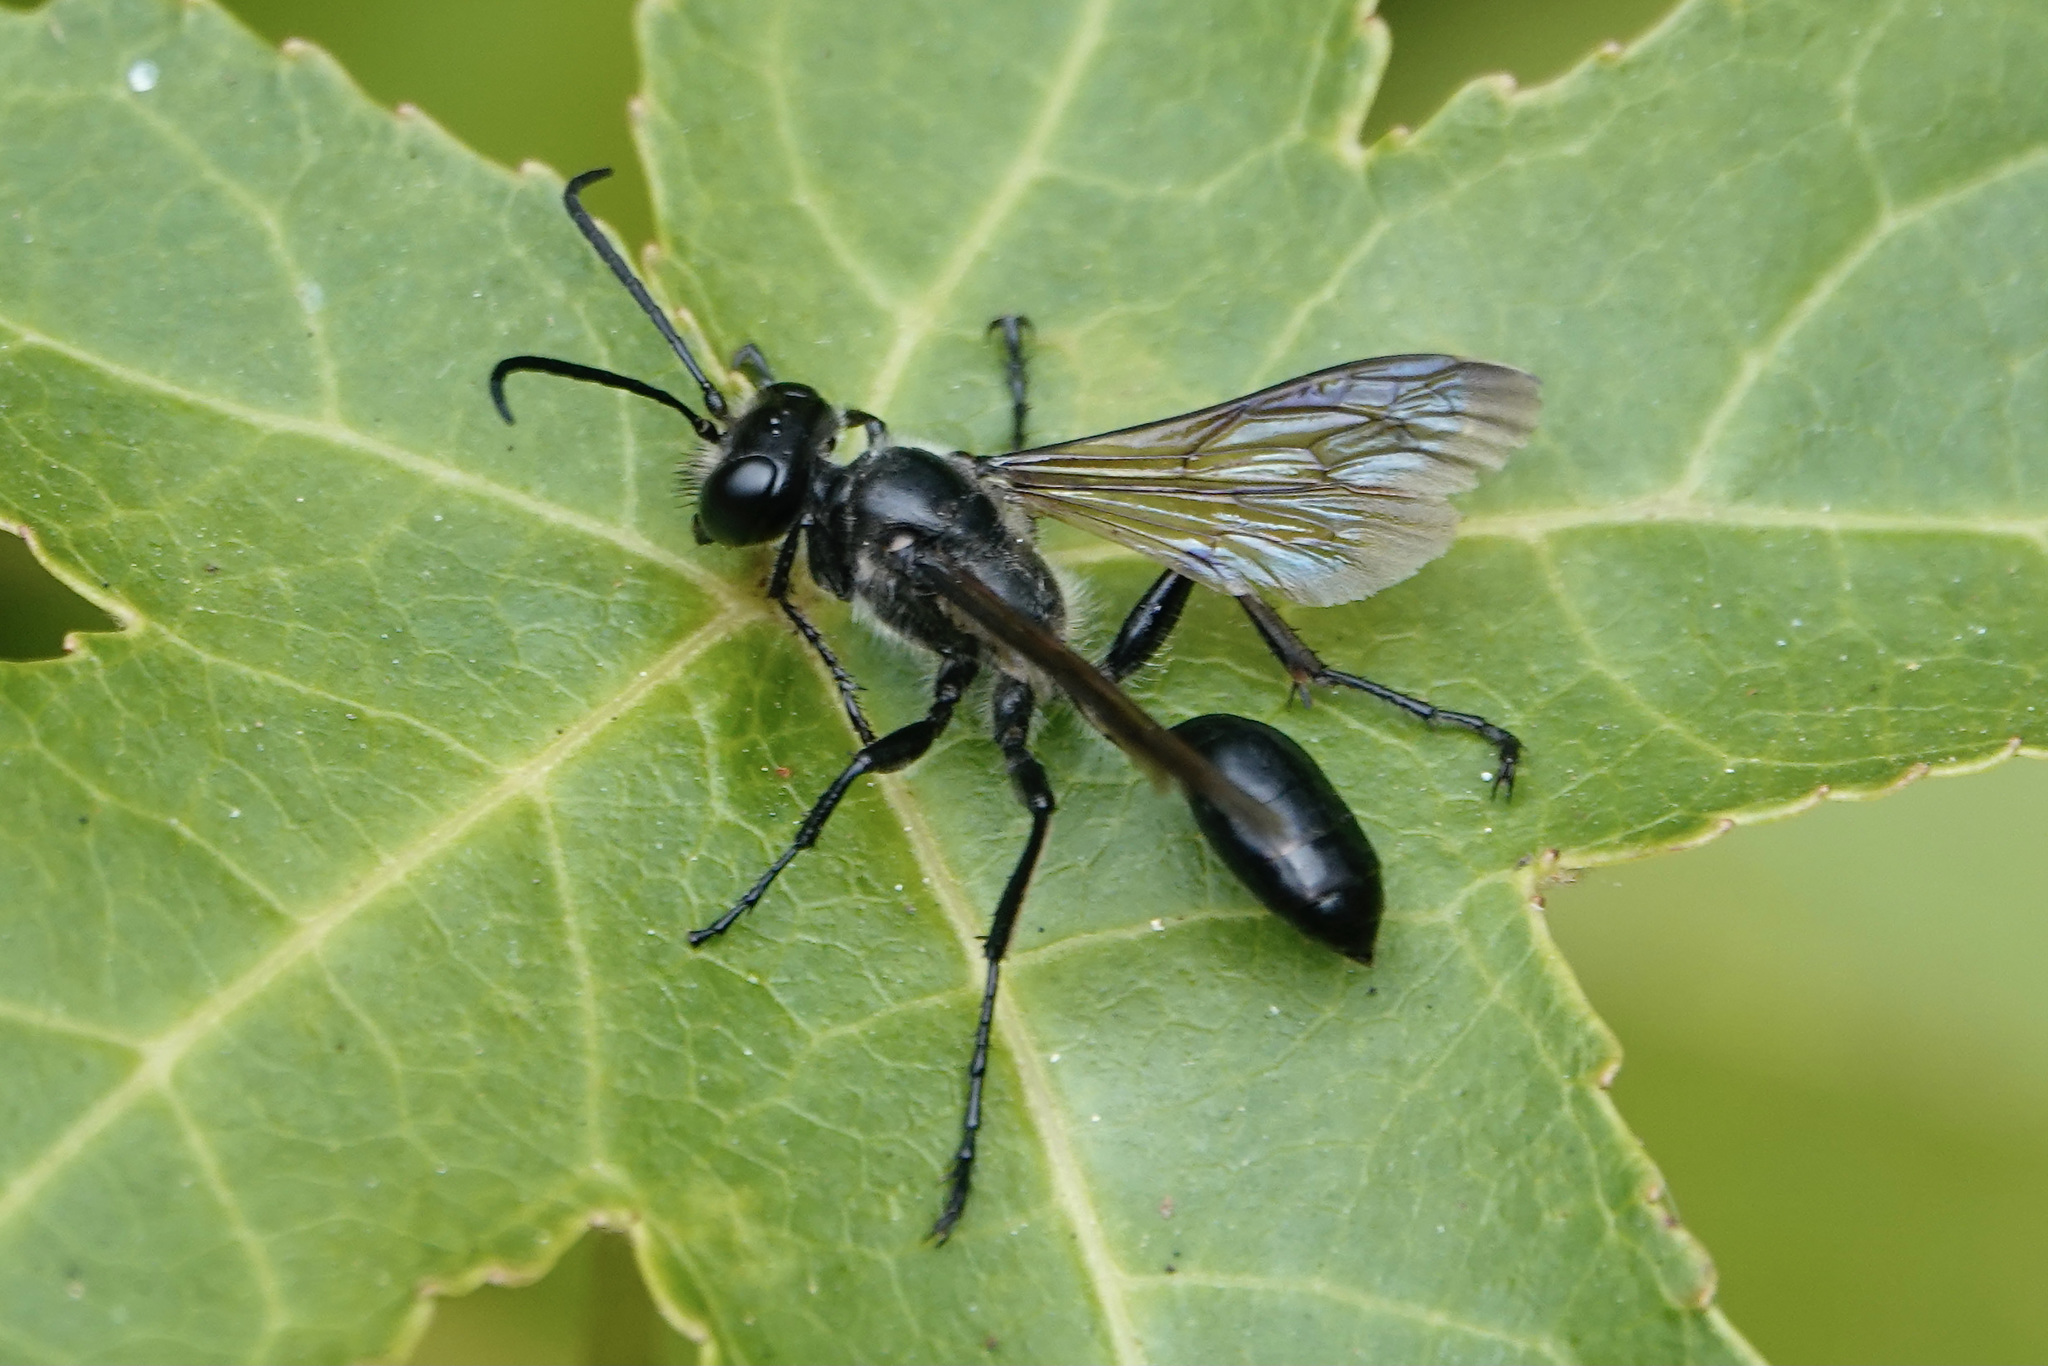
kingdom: Animalia
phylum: Arthropoda
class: Insecta
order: Hymenoptera
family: Sphecidae
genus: Isodontia
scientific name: Isodontia mexicana
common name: Mud dauber
